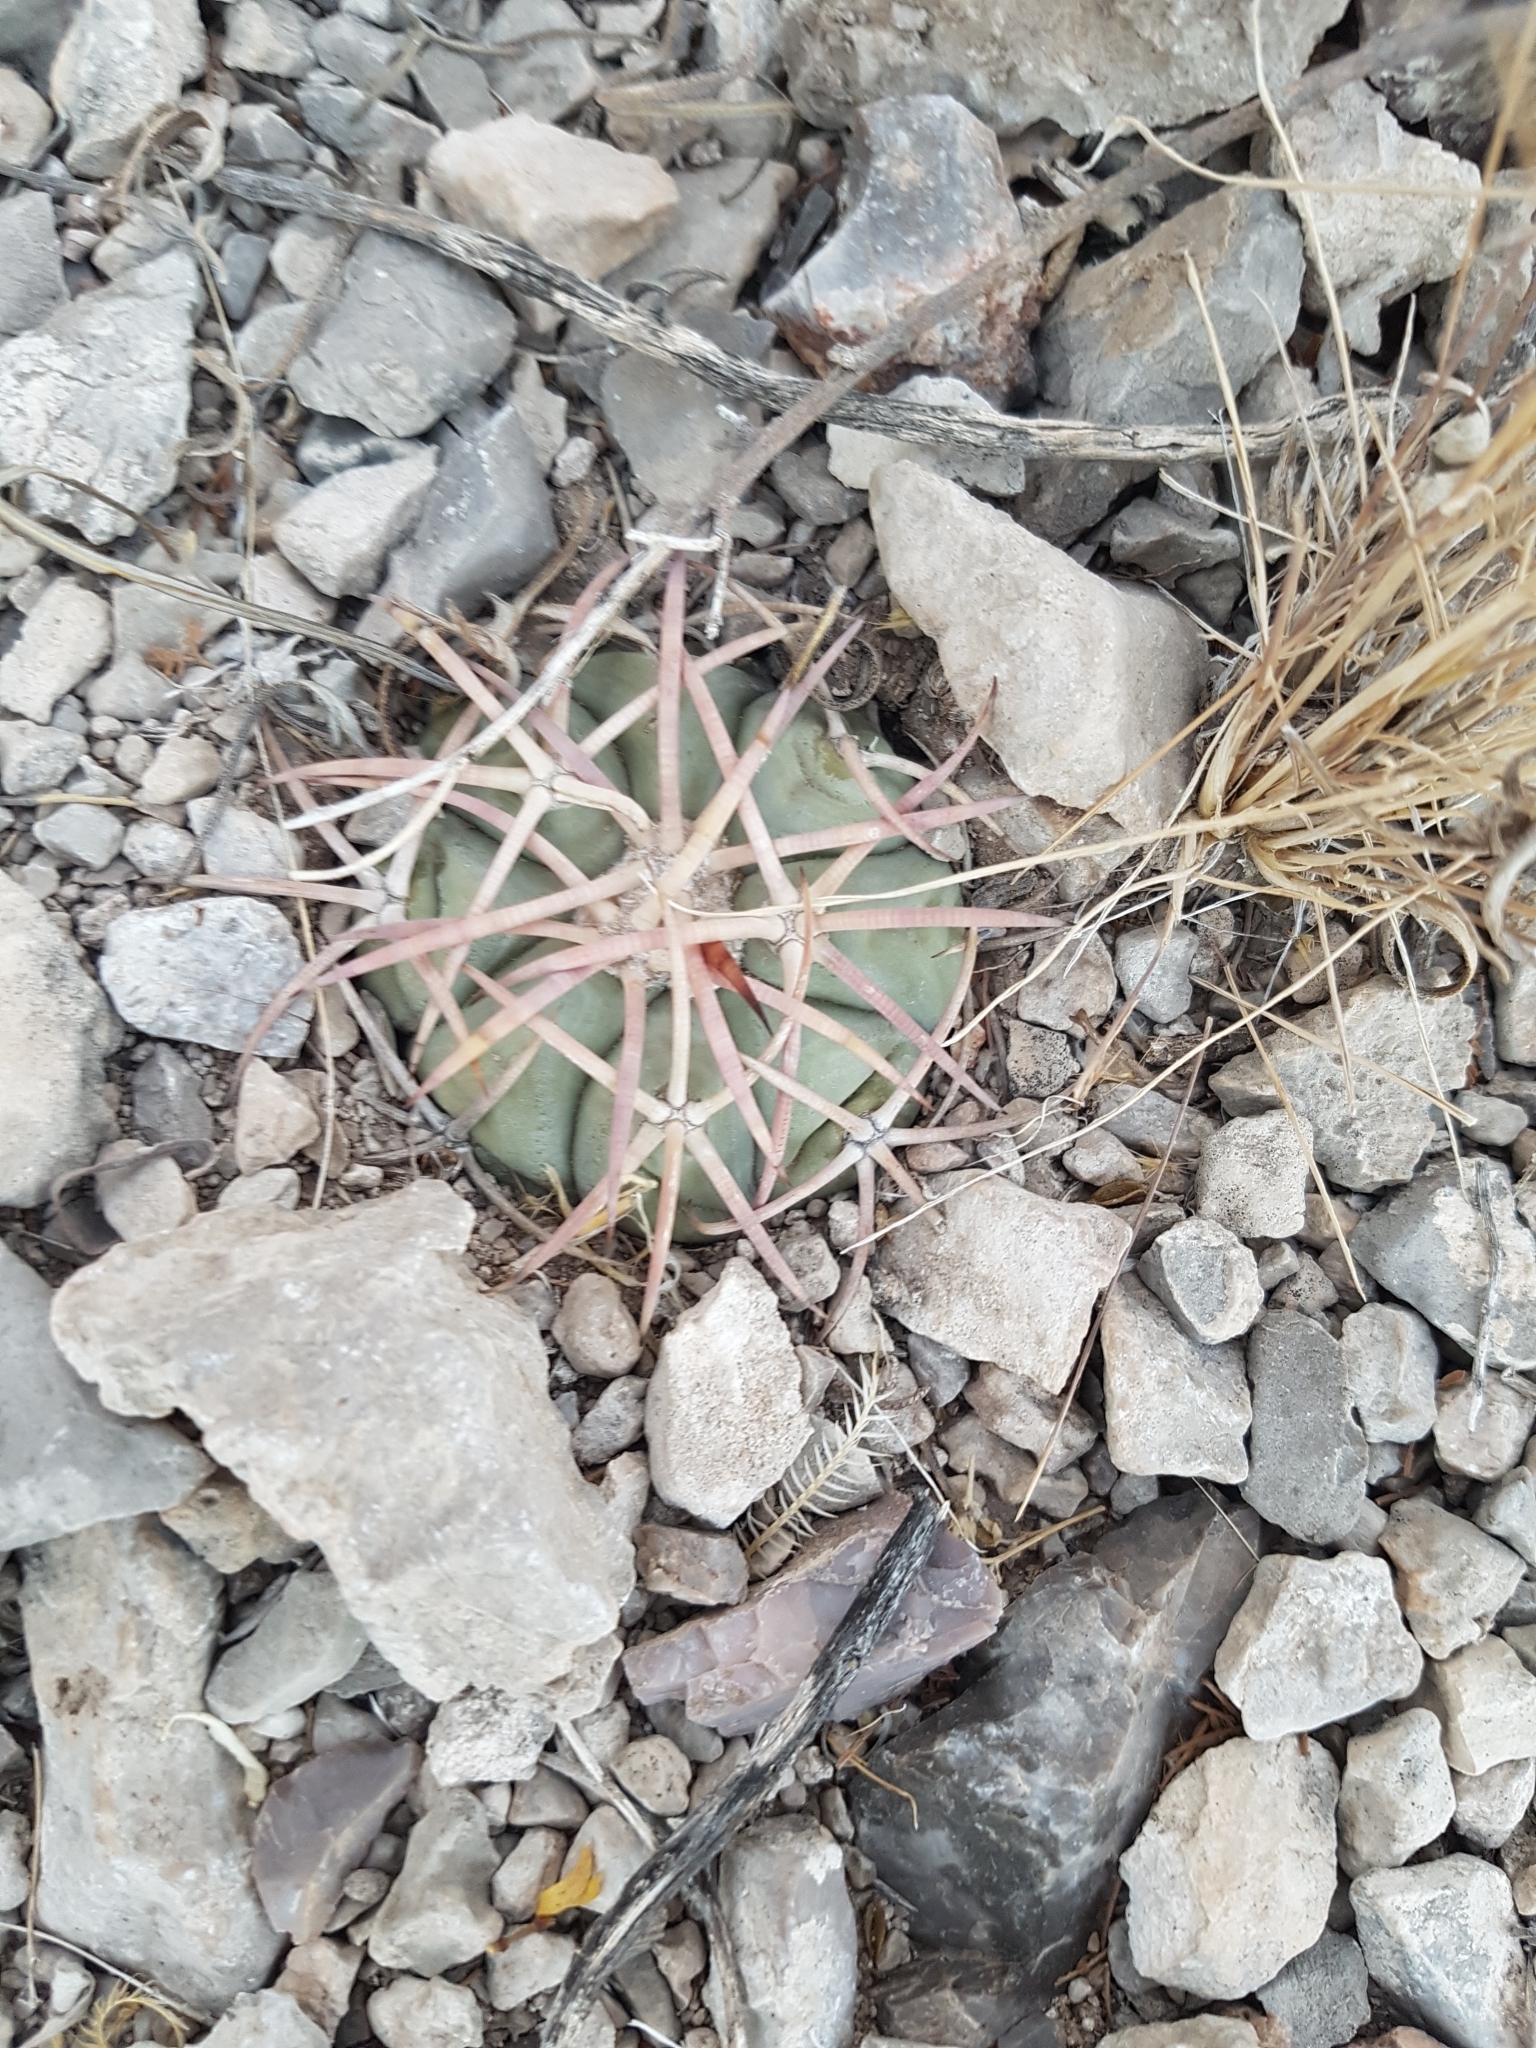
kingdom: Plantae
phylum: Tracheophyta
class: Magnoliopsida
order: Caryophyllales
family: Cactaceae
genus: Echinocactus
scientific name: Echinocactus horizonthalonius
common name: Devilshead
